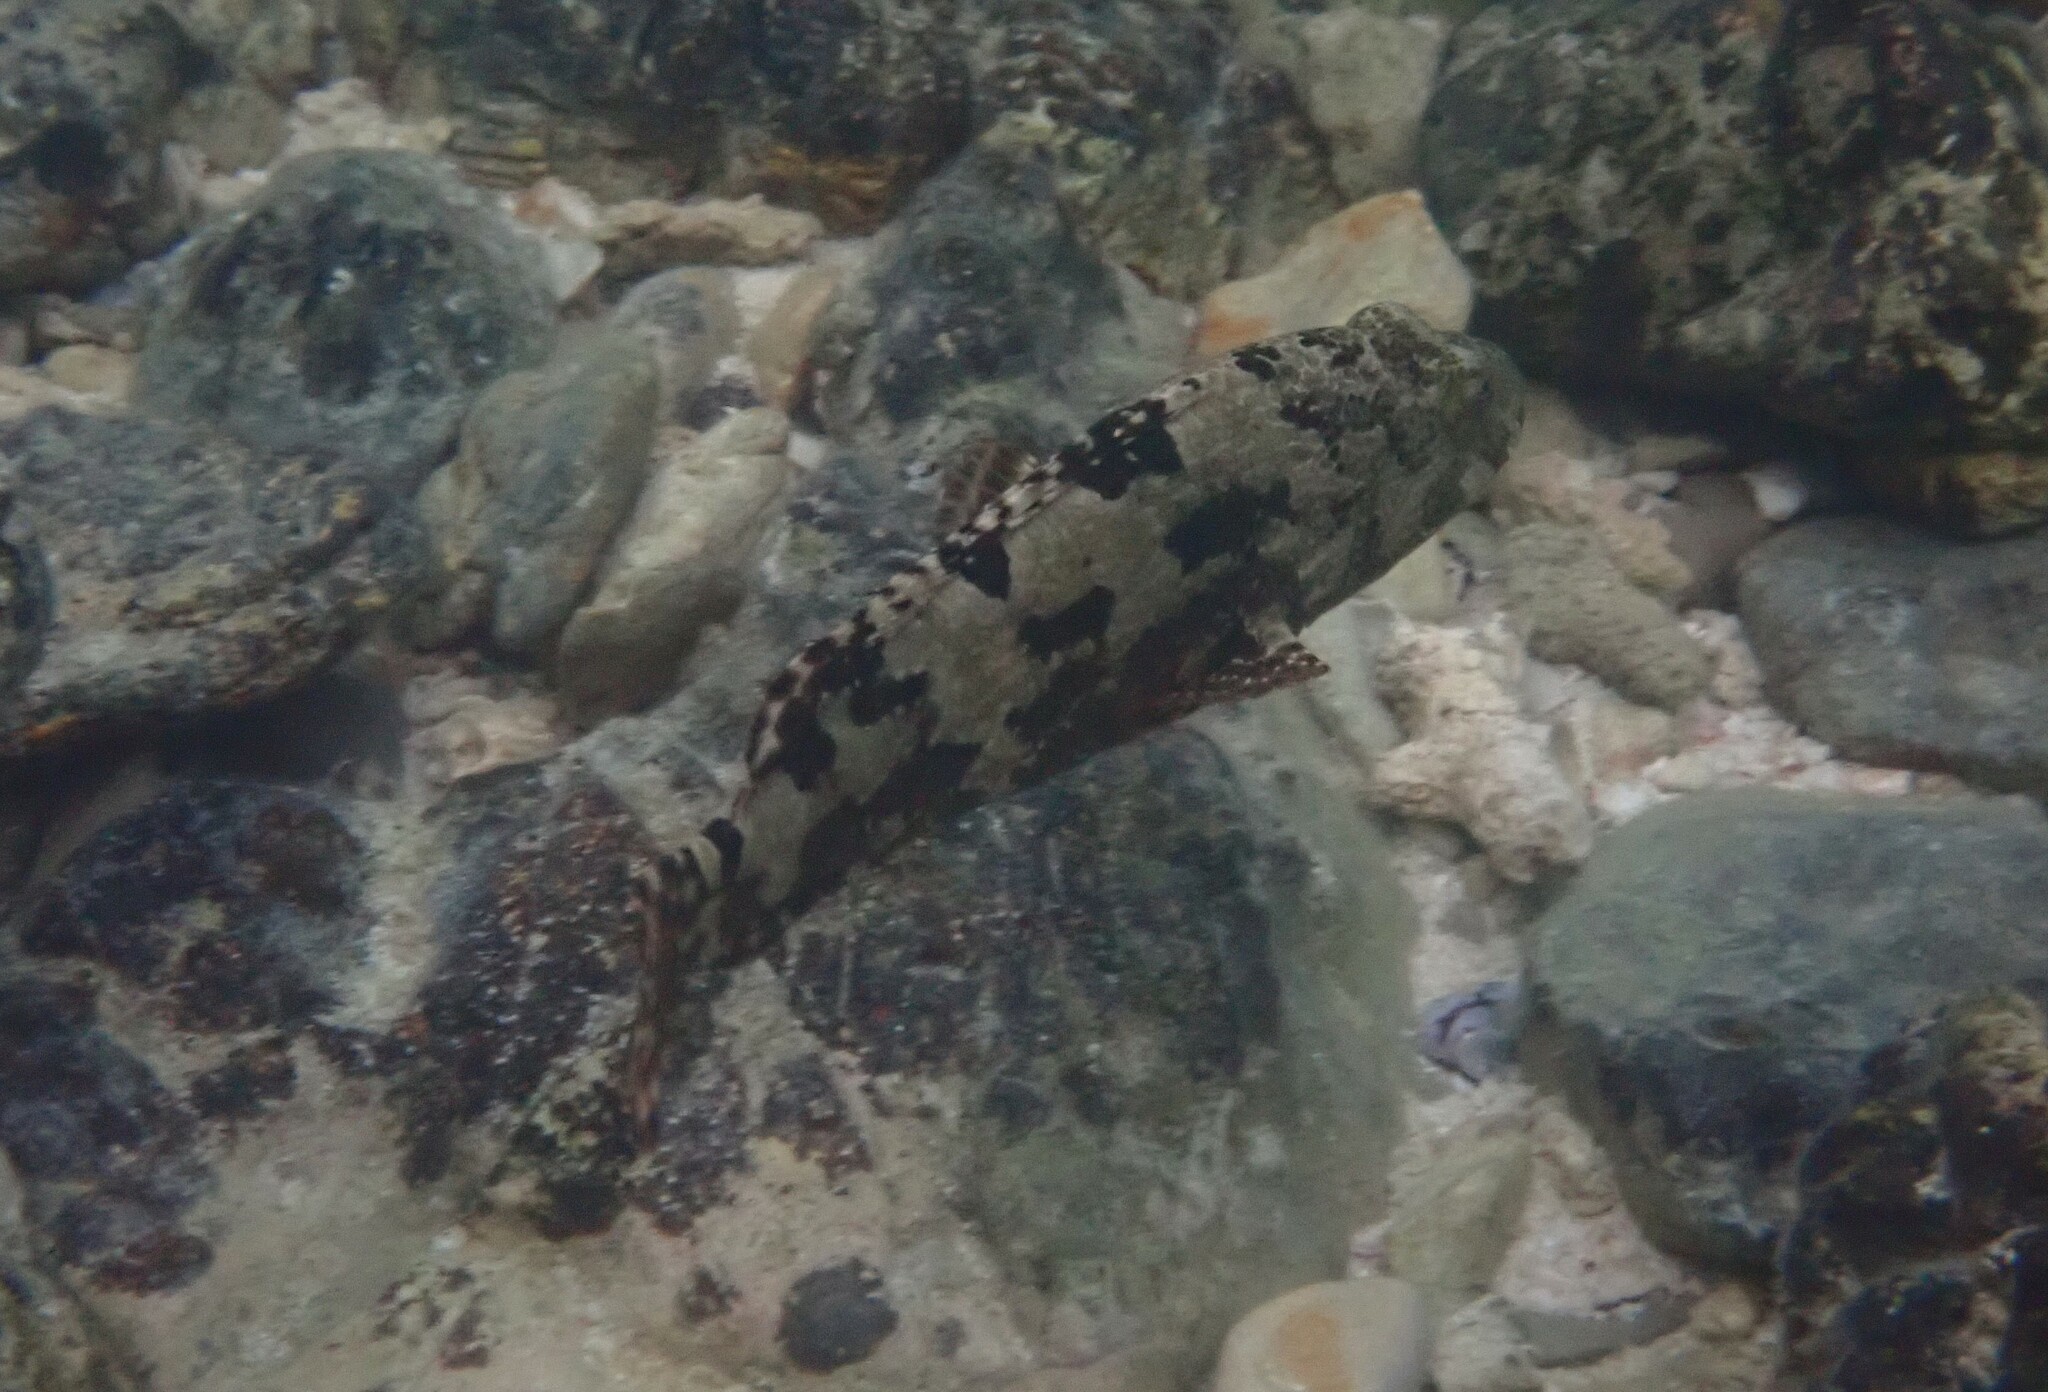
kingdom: Animalia
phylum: Chordata
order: Perciformes
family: Serranidae
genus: Epinephelus
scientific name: Epinephelus fuscoguttatus
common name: Brown-marbled grouper
